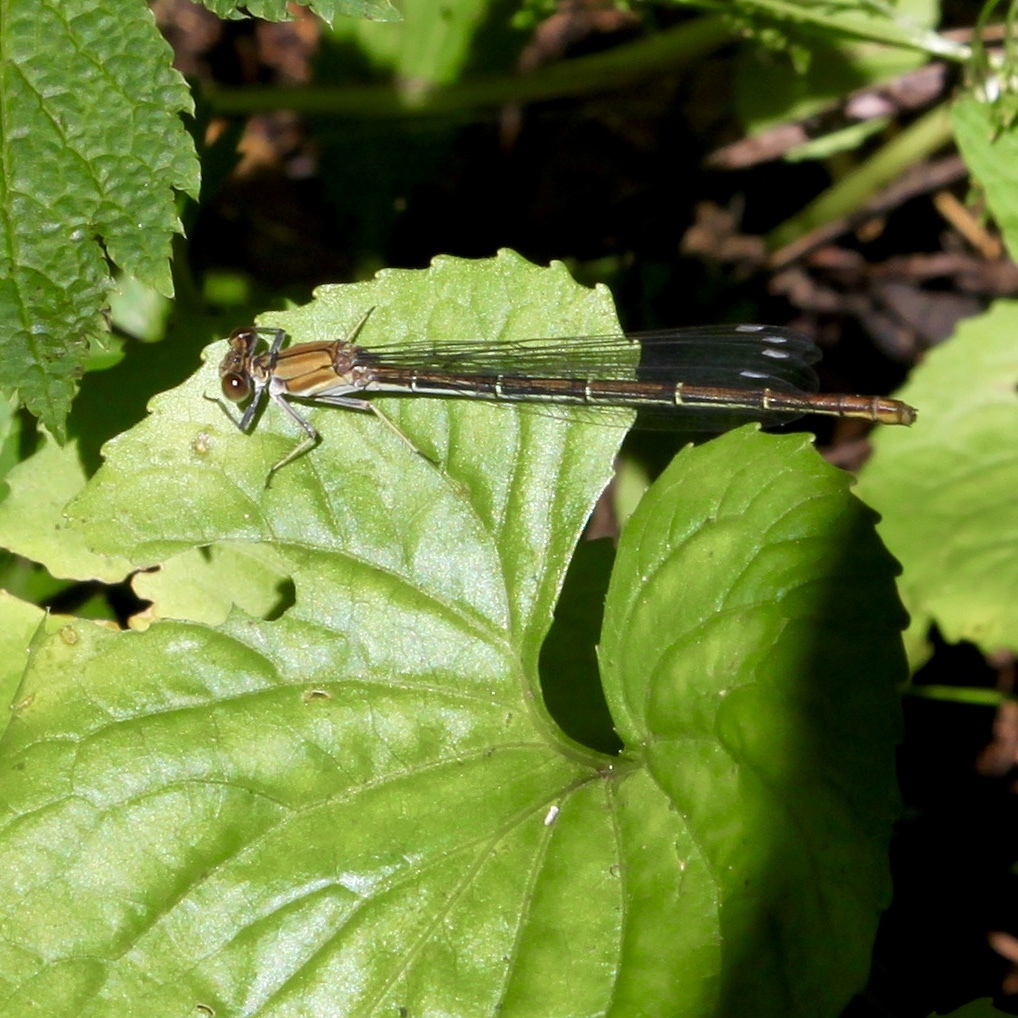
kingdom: Animalia
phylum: Arthropoda
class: Insecta
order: Odonata
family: Coenagrionidae
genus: Argia
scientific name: Argia moesta
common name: Powdered dancer
